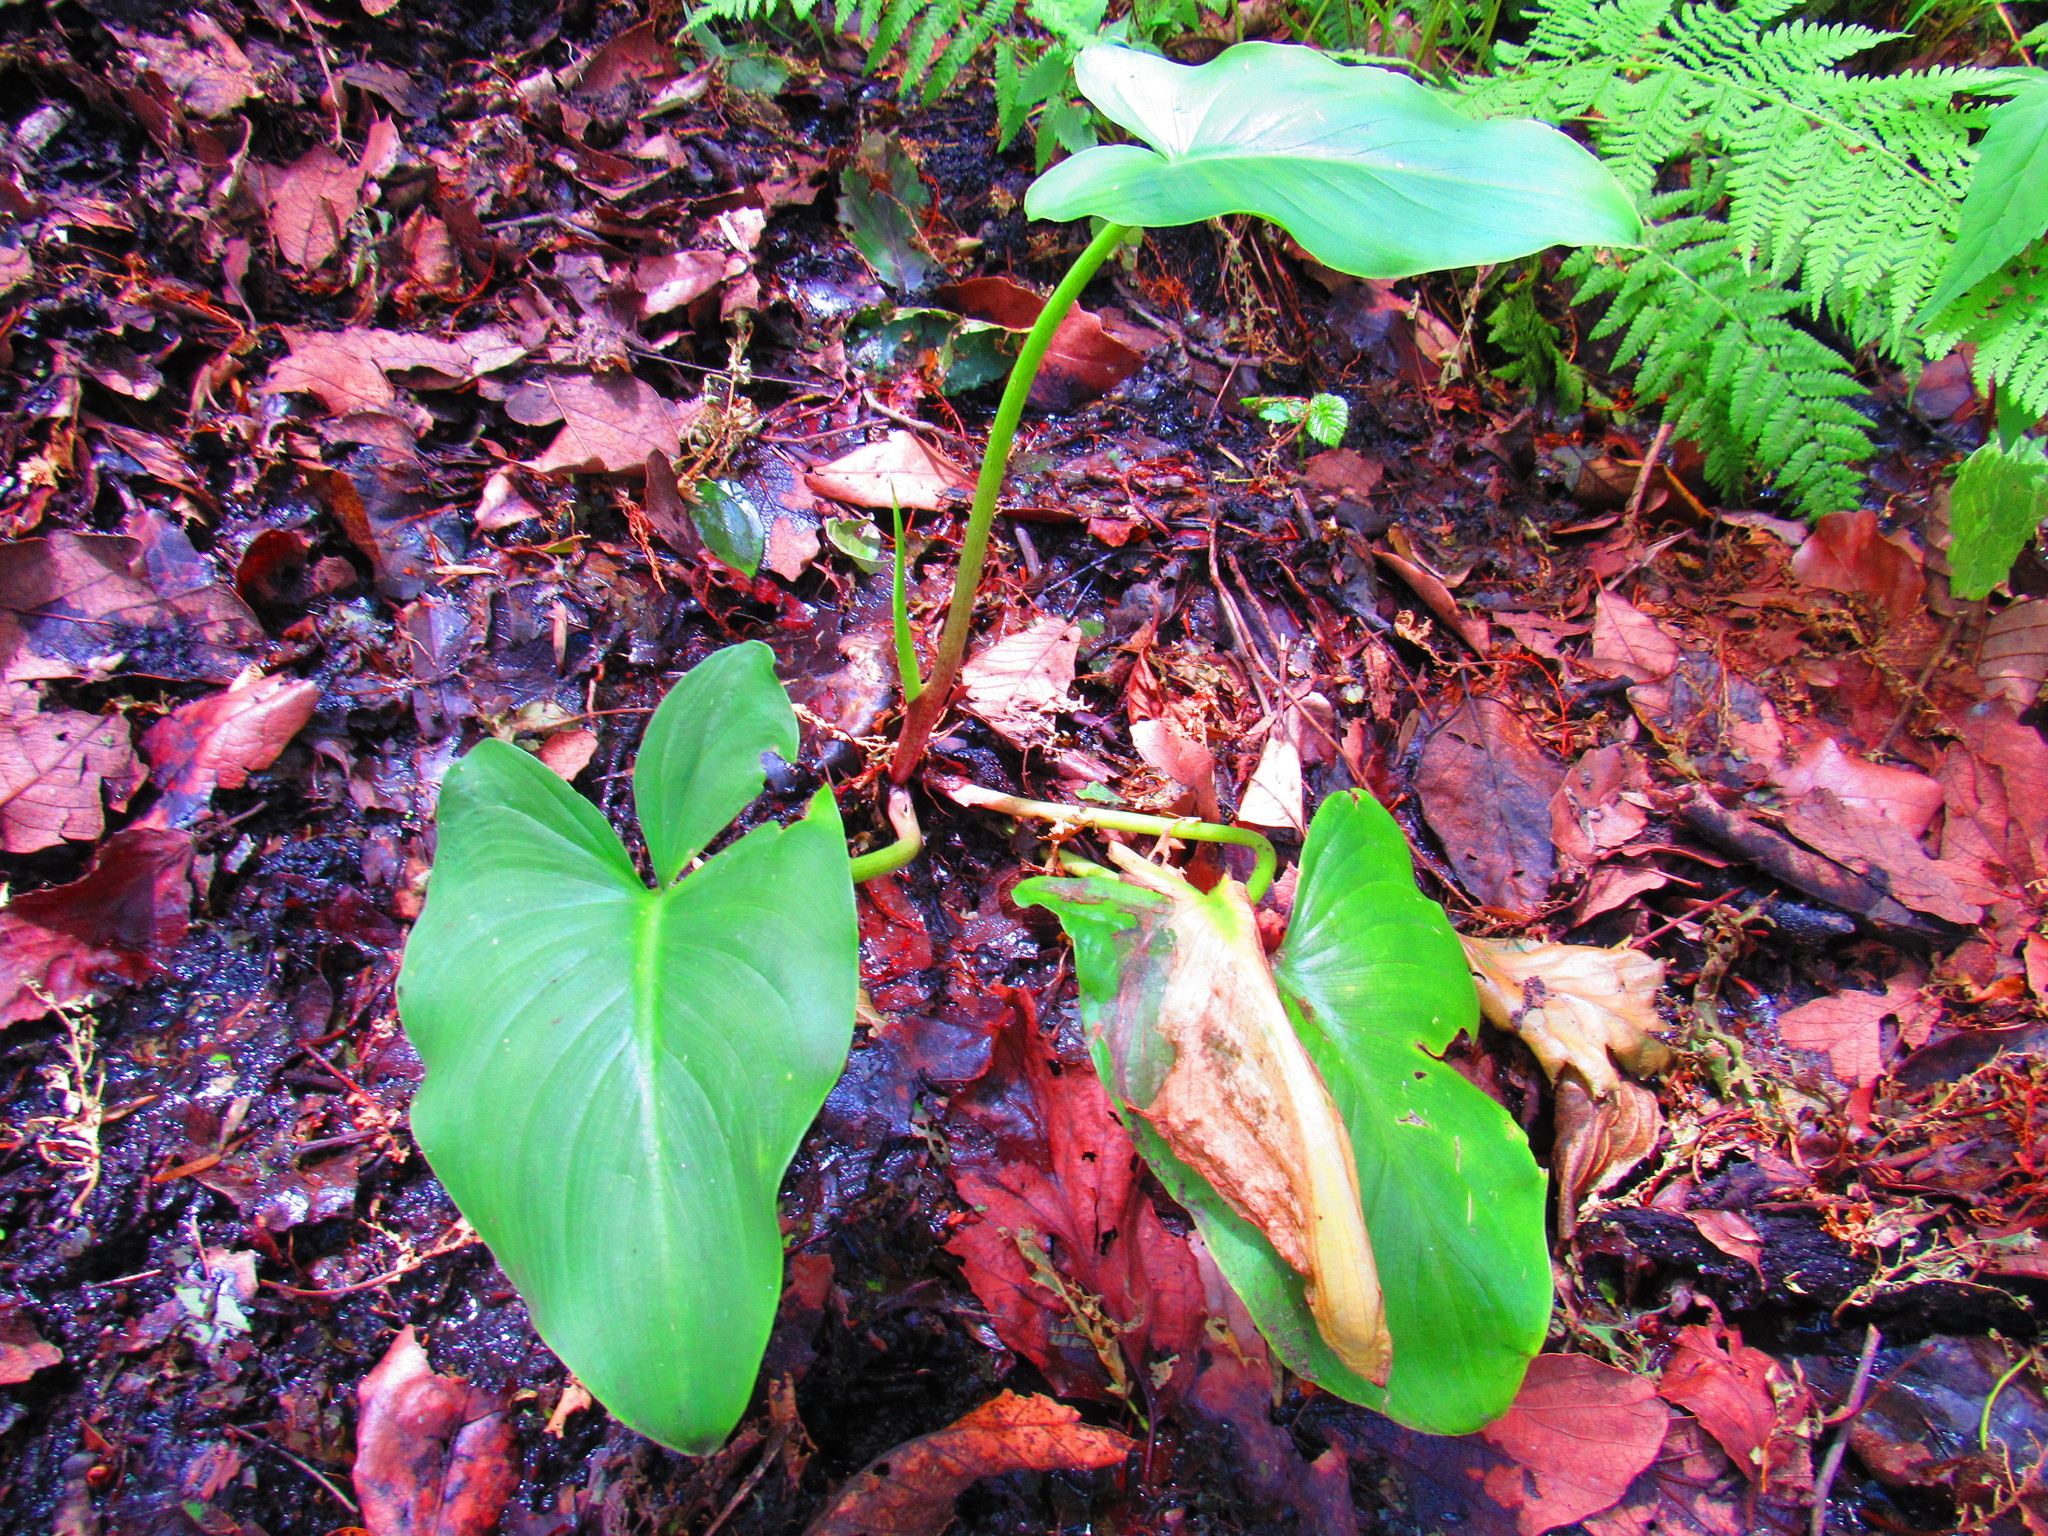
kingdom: Plantae
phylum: Tracheophyta
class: Liliopsida
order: Alismatales
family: Araceae
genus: Zantedeschia
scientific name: Zantedeschia aethiopica
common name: Altar-lily
